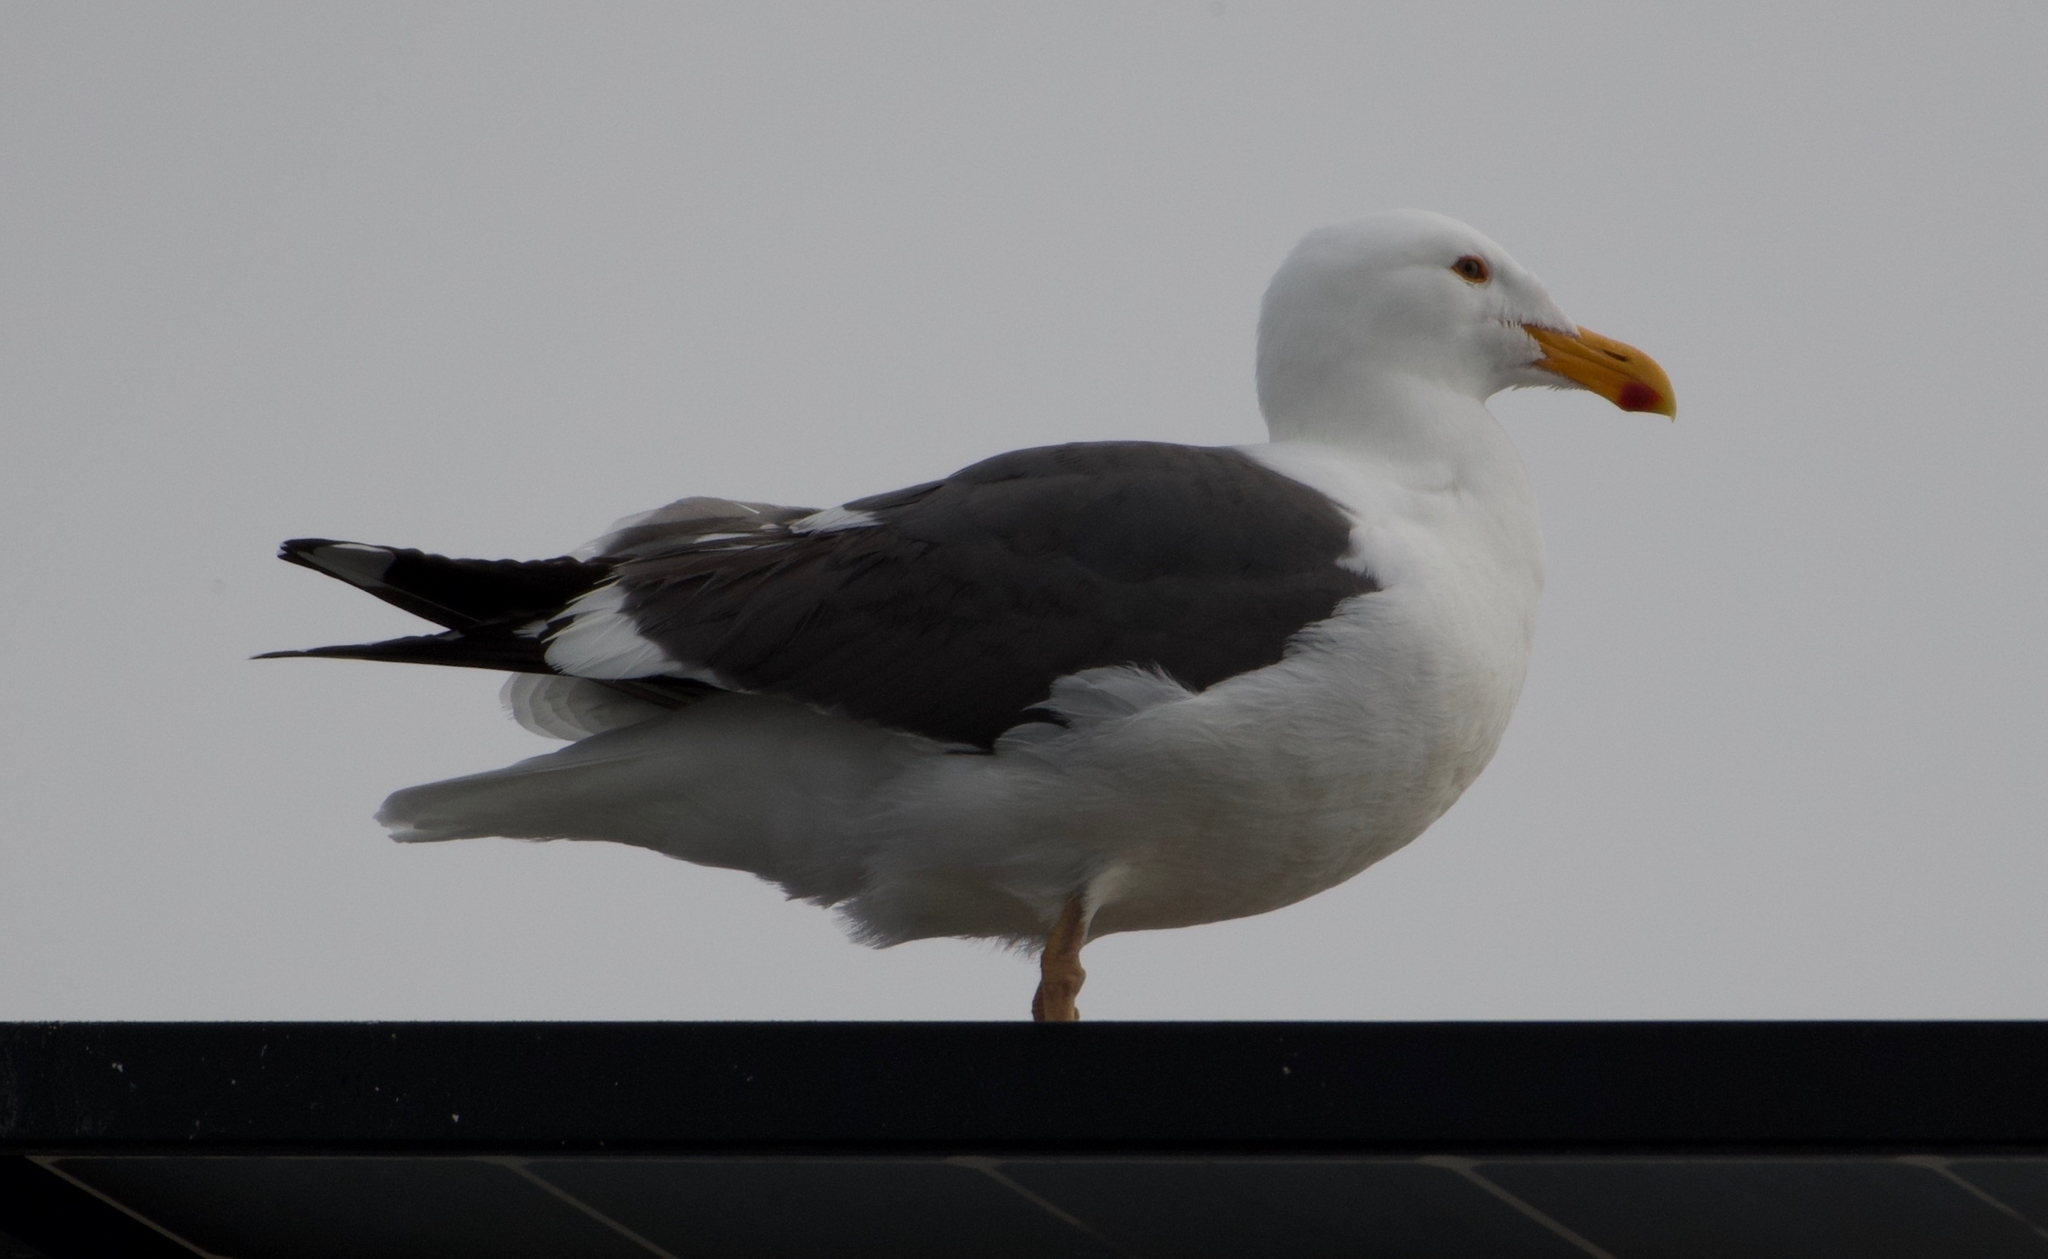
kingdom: Animalia
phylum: Chordata
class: Aves
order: Charadriiformes
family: Laridae
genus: Larus
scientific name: Larus occidentalis
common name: Western gull
